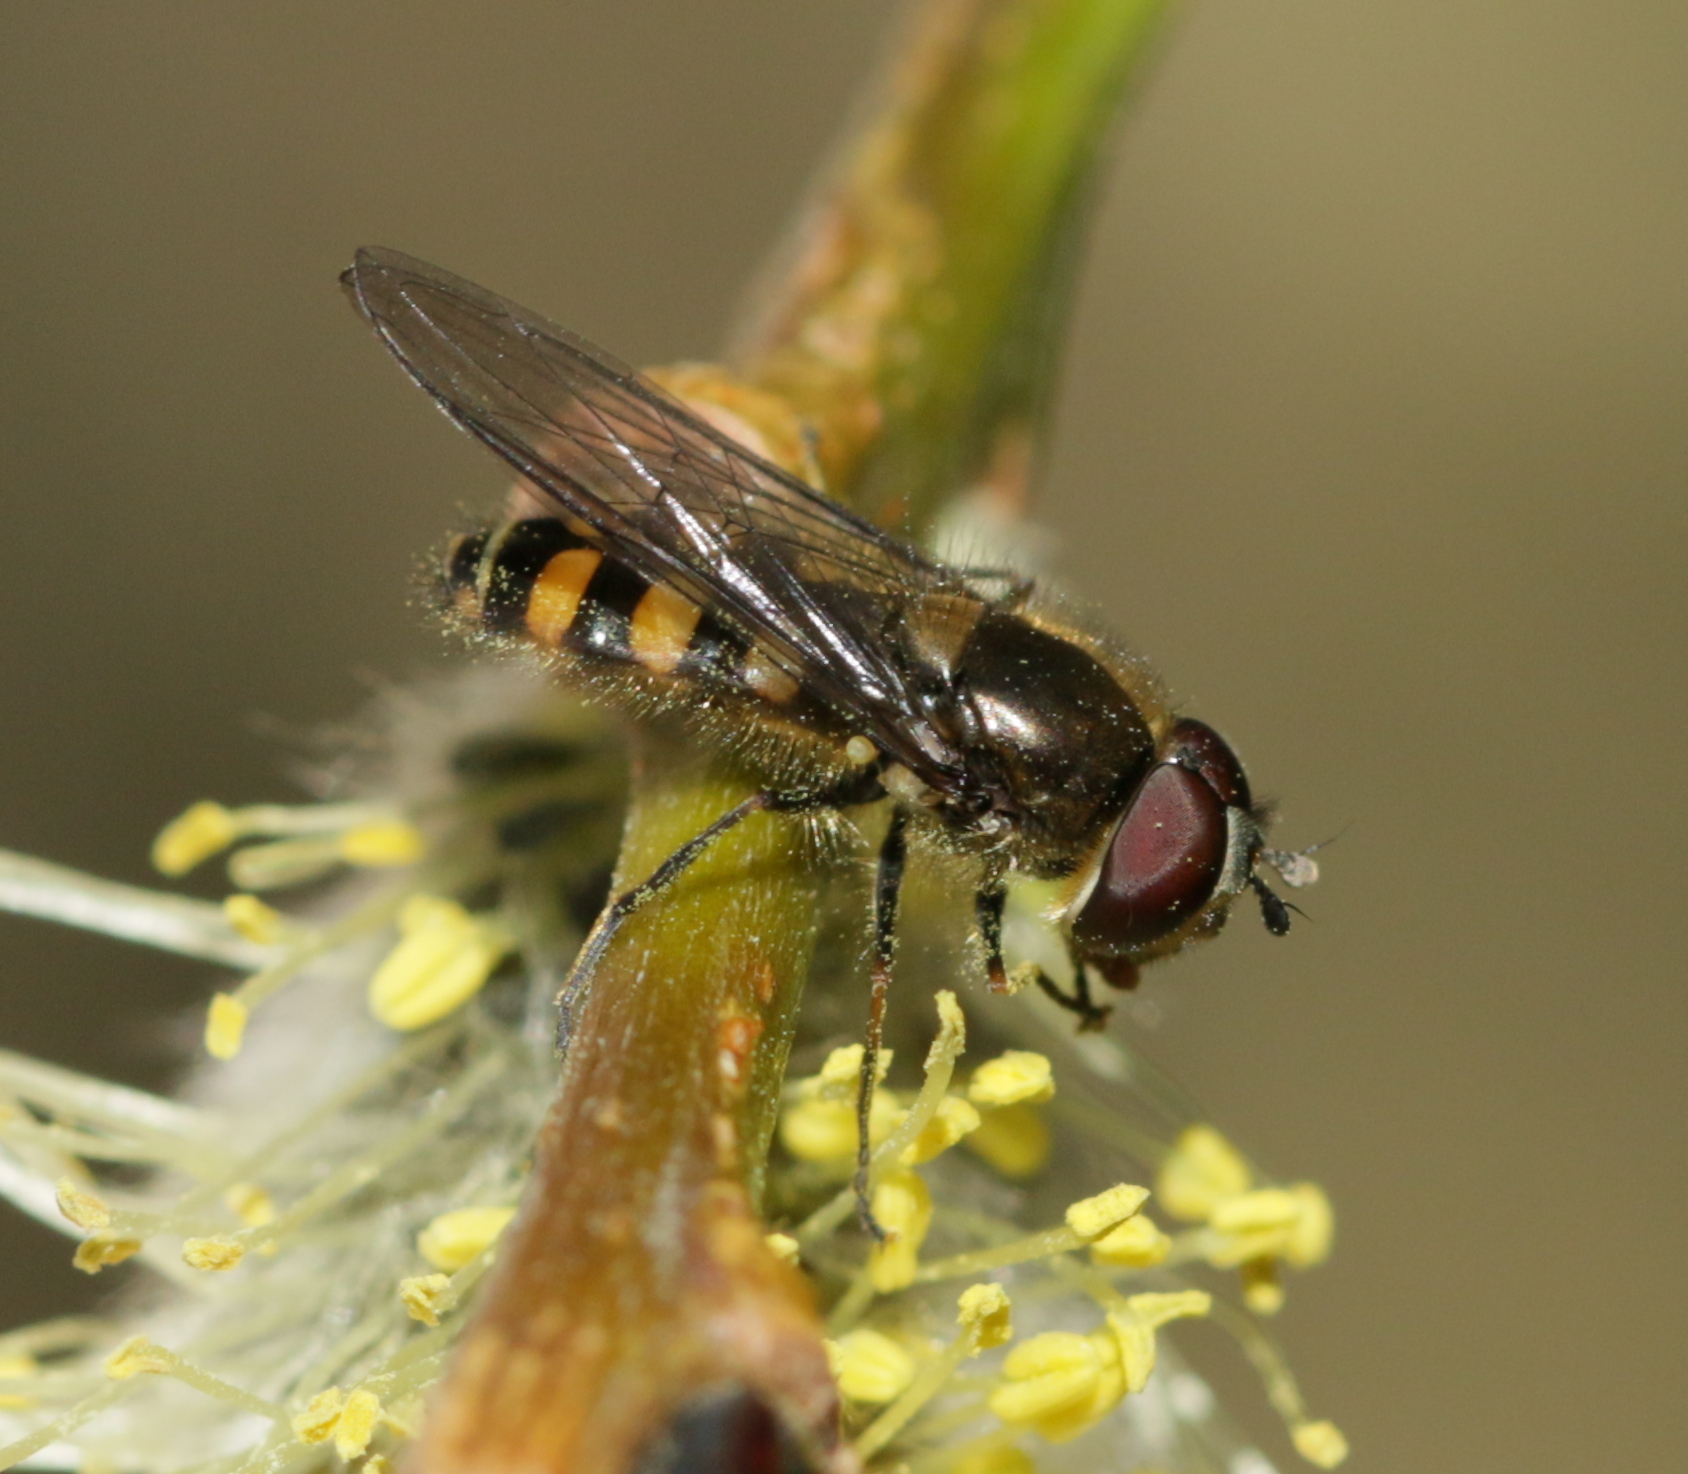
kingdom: Animalia
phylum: Arthropoda
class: Insecta
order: Diptera
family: Syrphidae
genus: Melangyna
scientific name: Melangyna lasiophthalma
